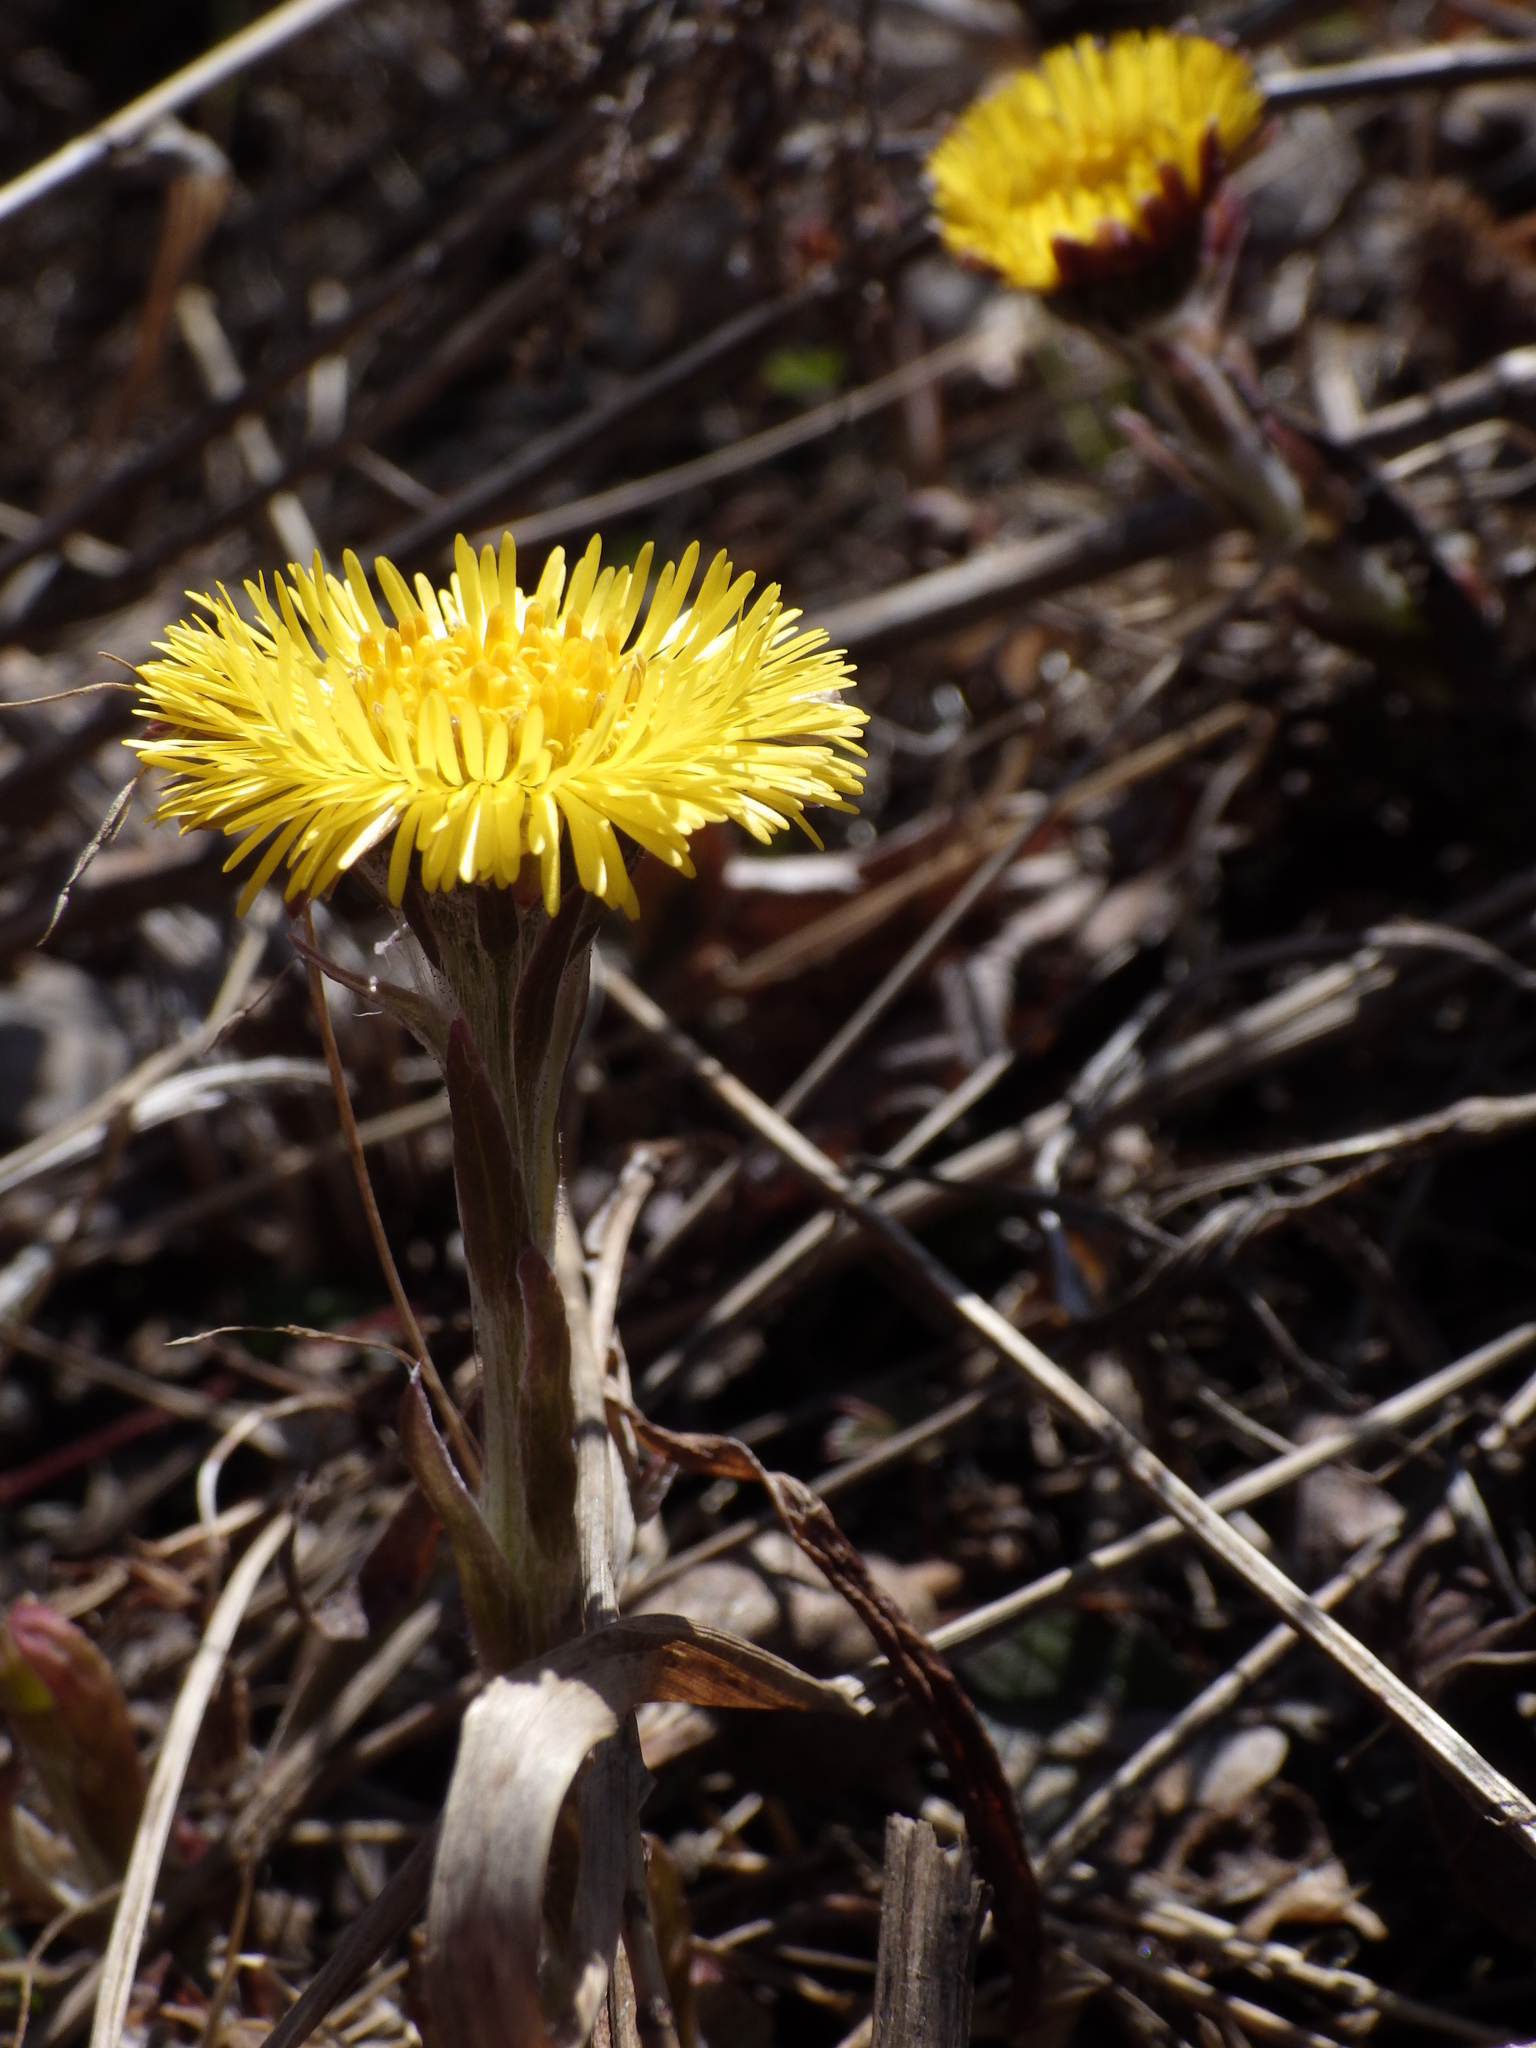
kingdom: Plantae
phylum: Tracheophyta
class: Magnoliopsida
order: Asterales
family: Asteraceae
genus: Tussilago
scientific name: Tussilago farfara
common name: Coltsfoot
